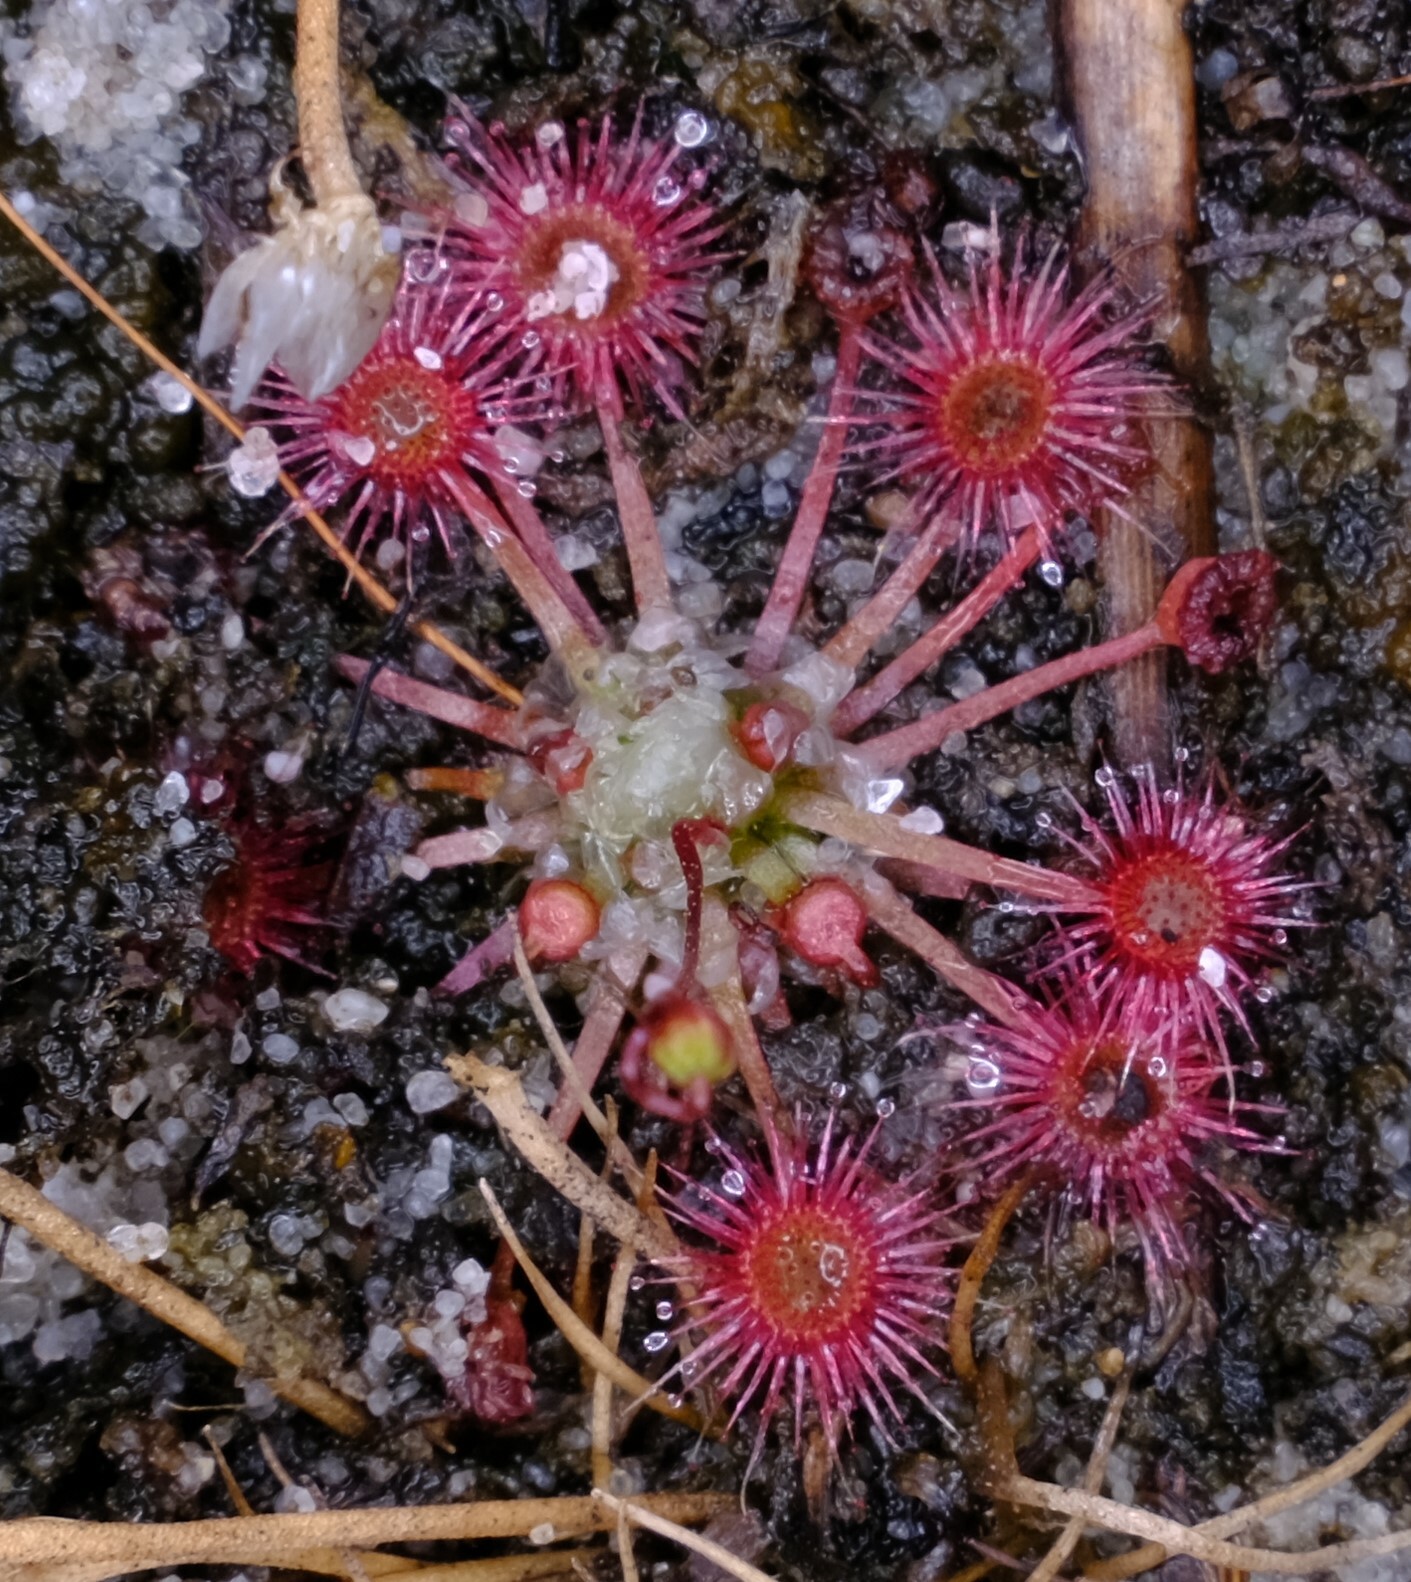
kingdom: Plantae
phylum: Tracheophyta
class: Magnoliopsida
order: Caryophyllales
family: Droseraceae
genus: Drosera
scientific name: Drosera pygmaea
